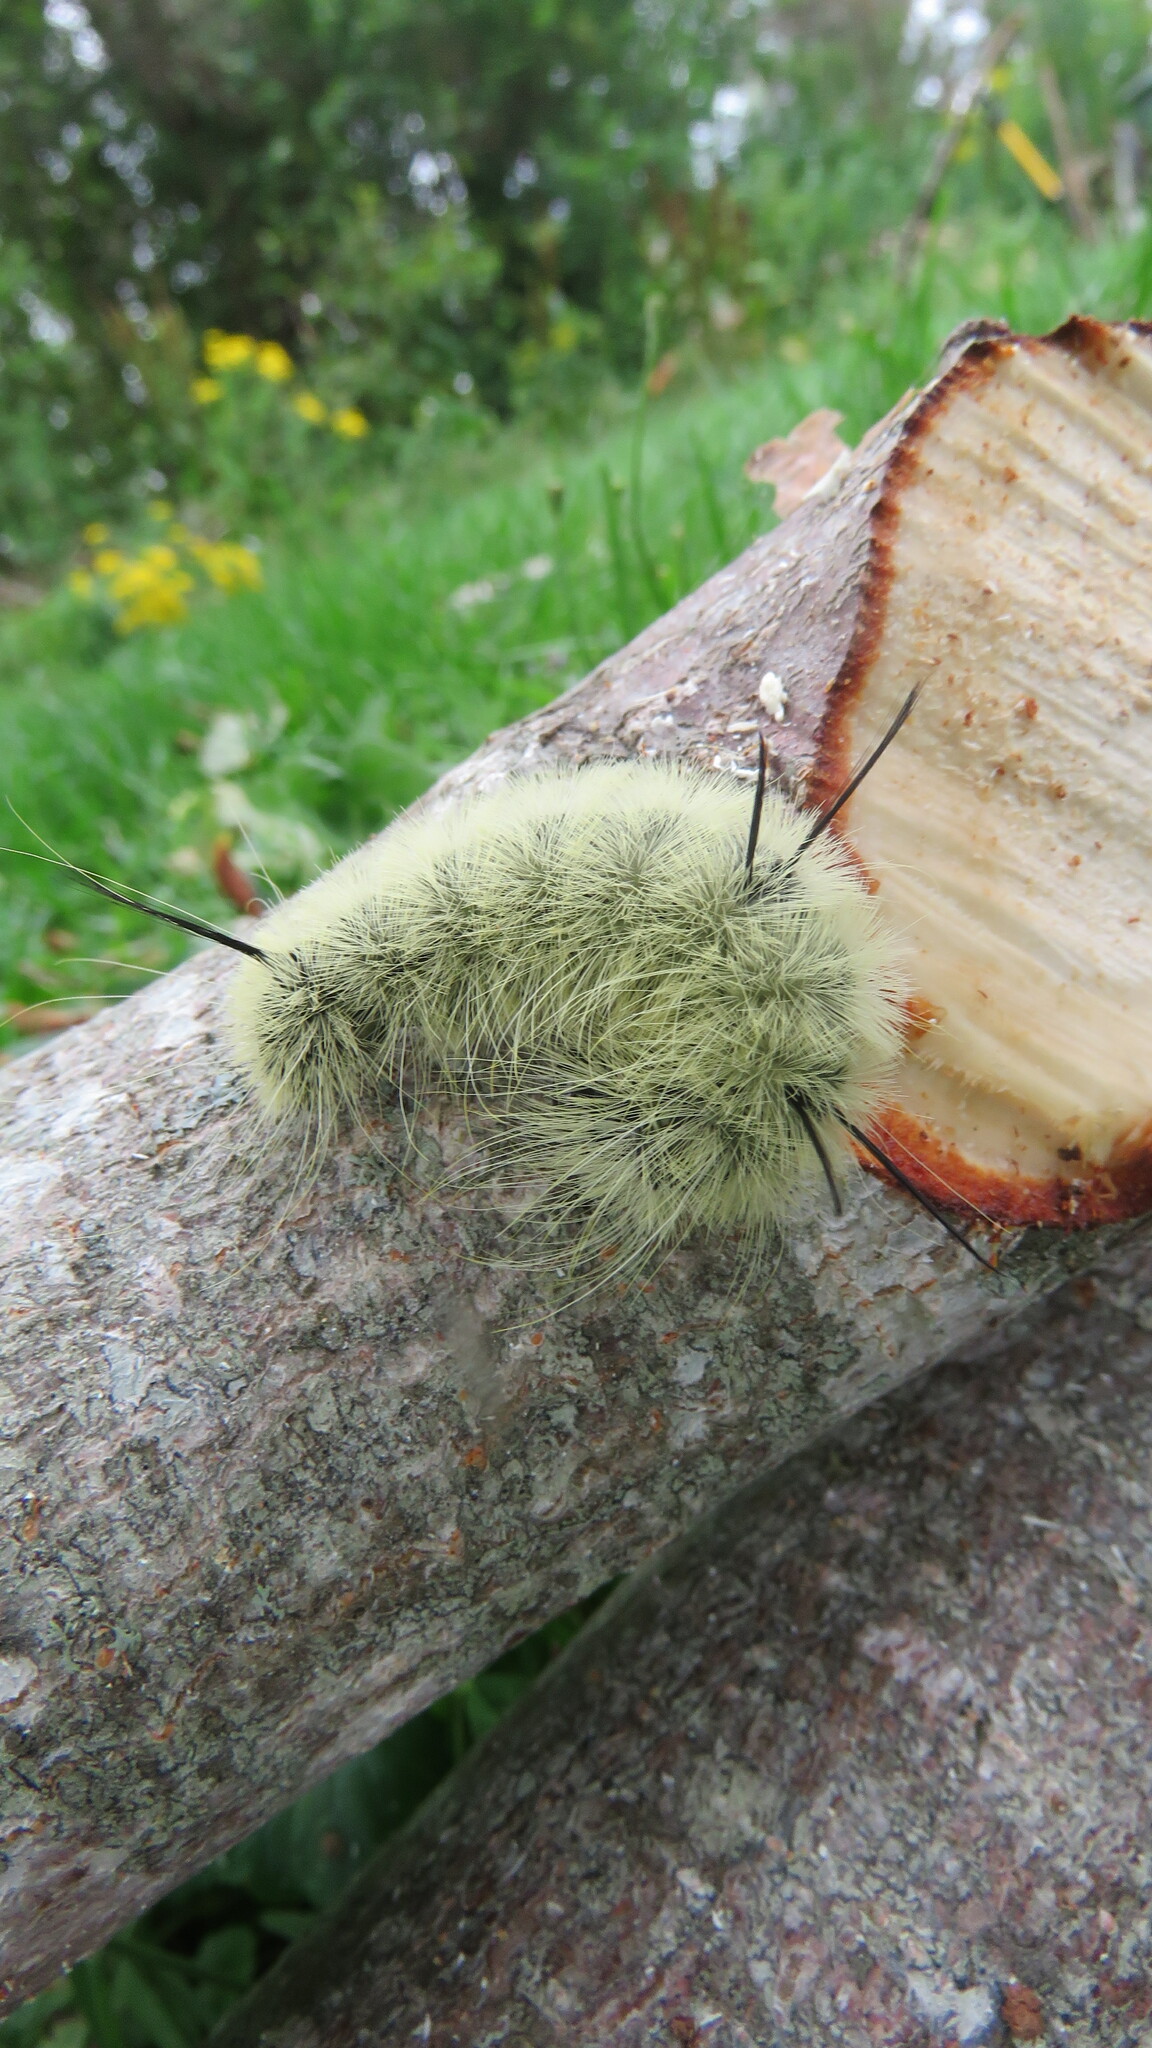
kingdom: Animalia
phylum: Arthropoda
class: Insecta
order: Lepidoptera
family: Noctuidae
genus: Acronicta
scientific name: Acronicta americana
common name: American dagger
